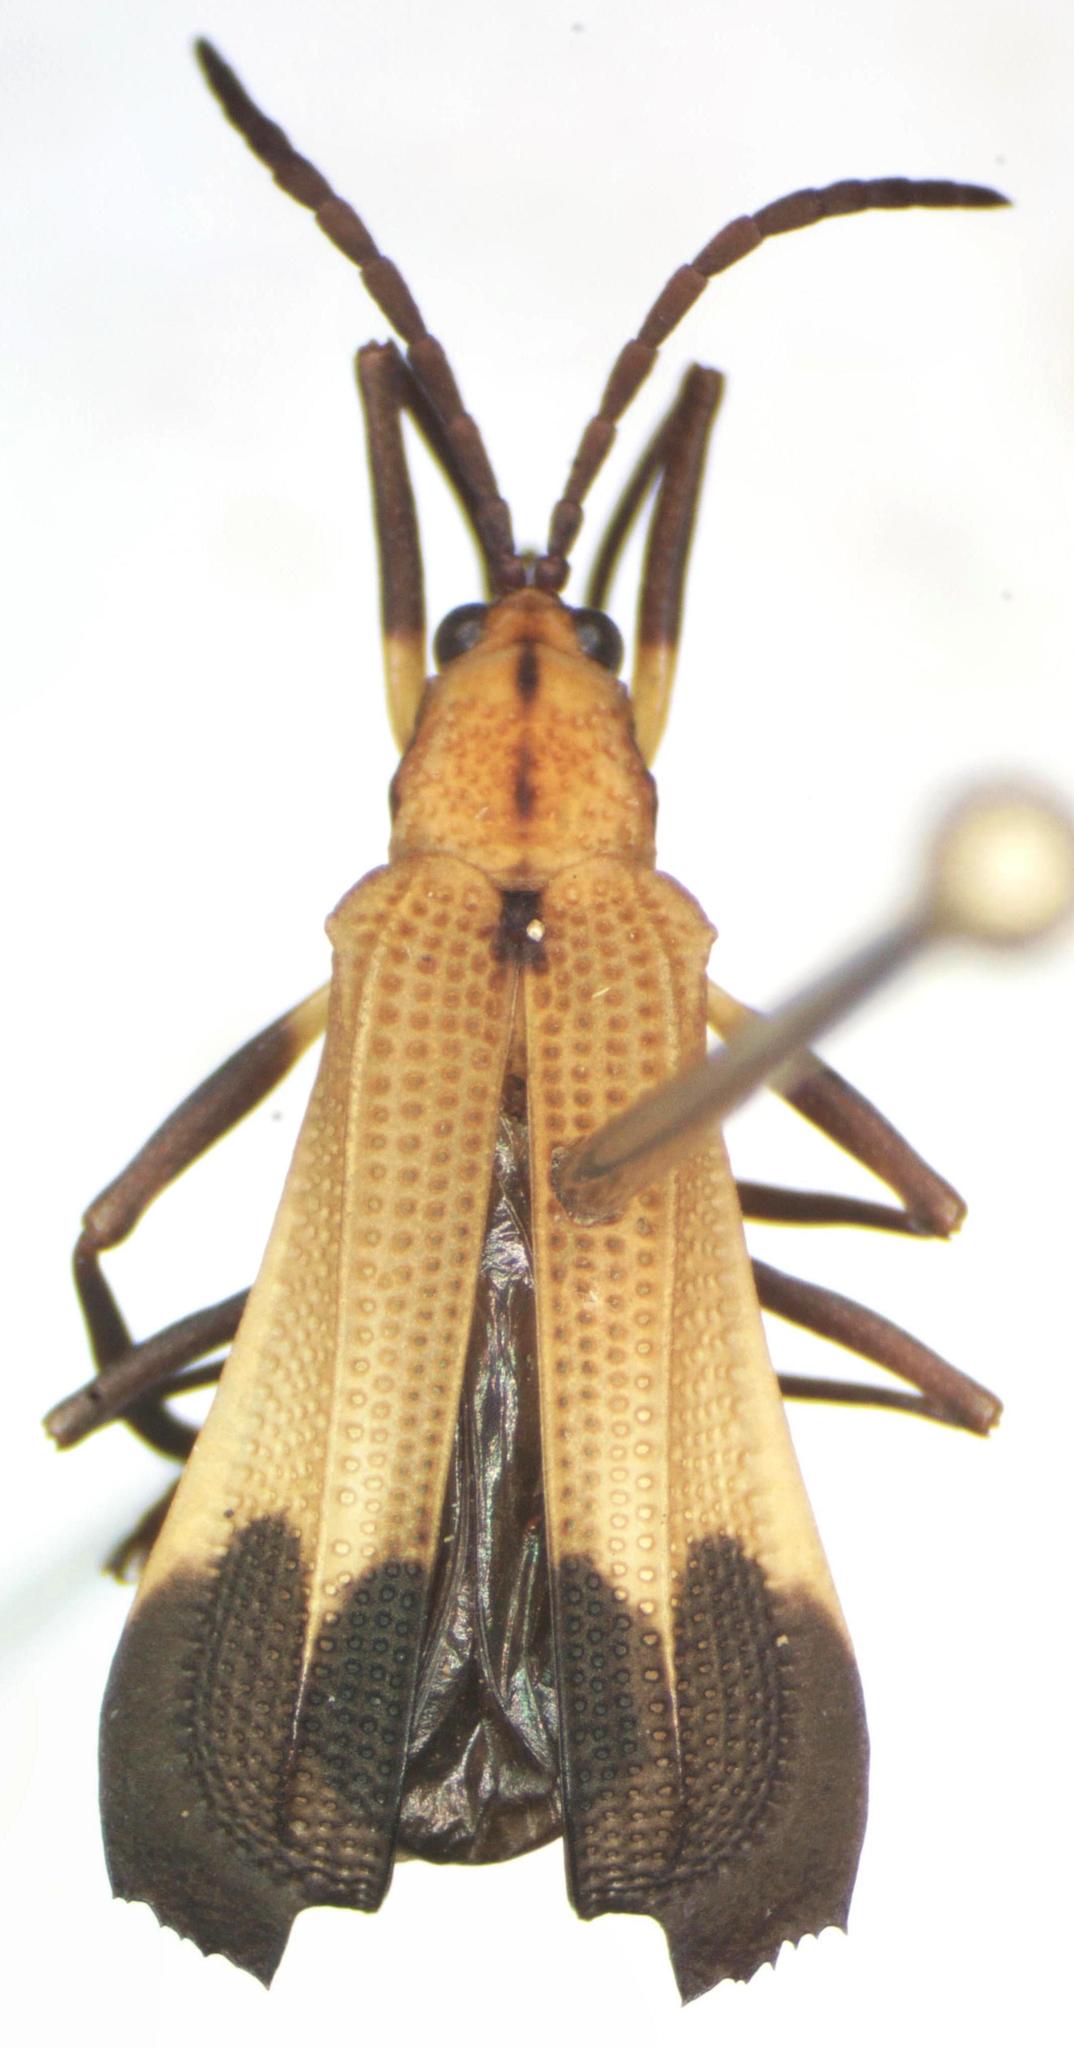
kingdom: Animalia
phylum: Arthropoda
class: Insecta
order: Coleoptera
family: Chrysomelidae
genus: Sceloenopla
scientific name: Sceloenopla ampliata
